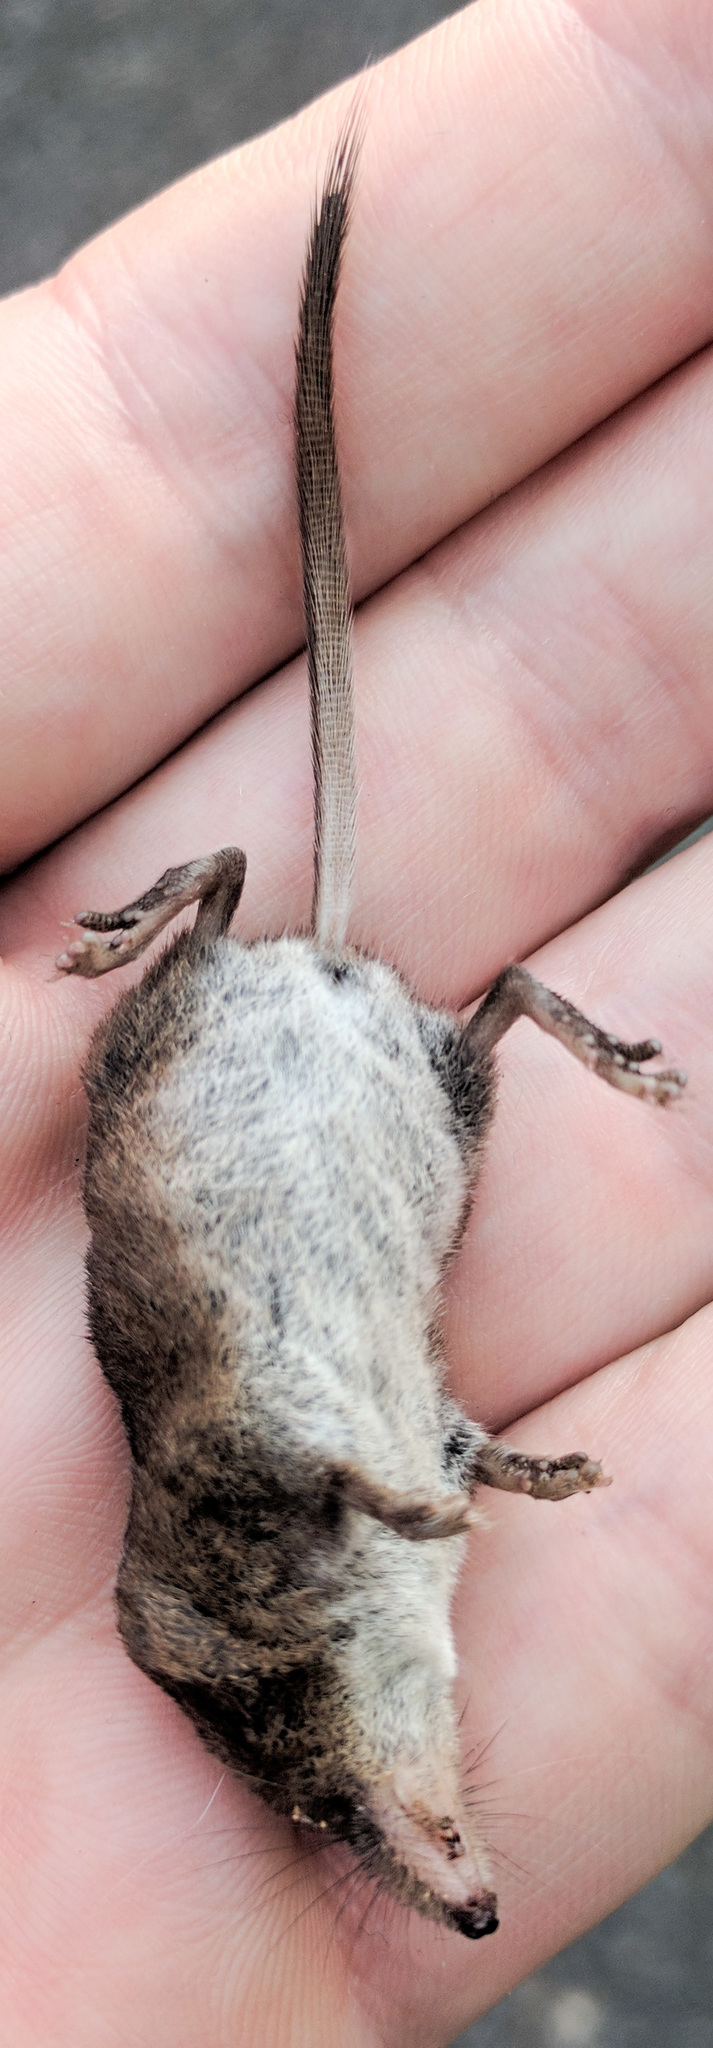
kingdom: Animalia
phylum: Chordata
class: Mammalia
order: Soricomorpha
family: Soricidae
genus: Sorex
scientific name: Sorex cinereus
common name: Cinereus shrew
